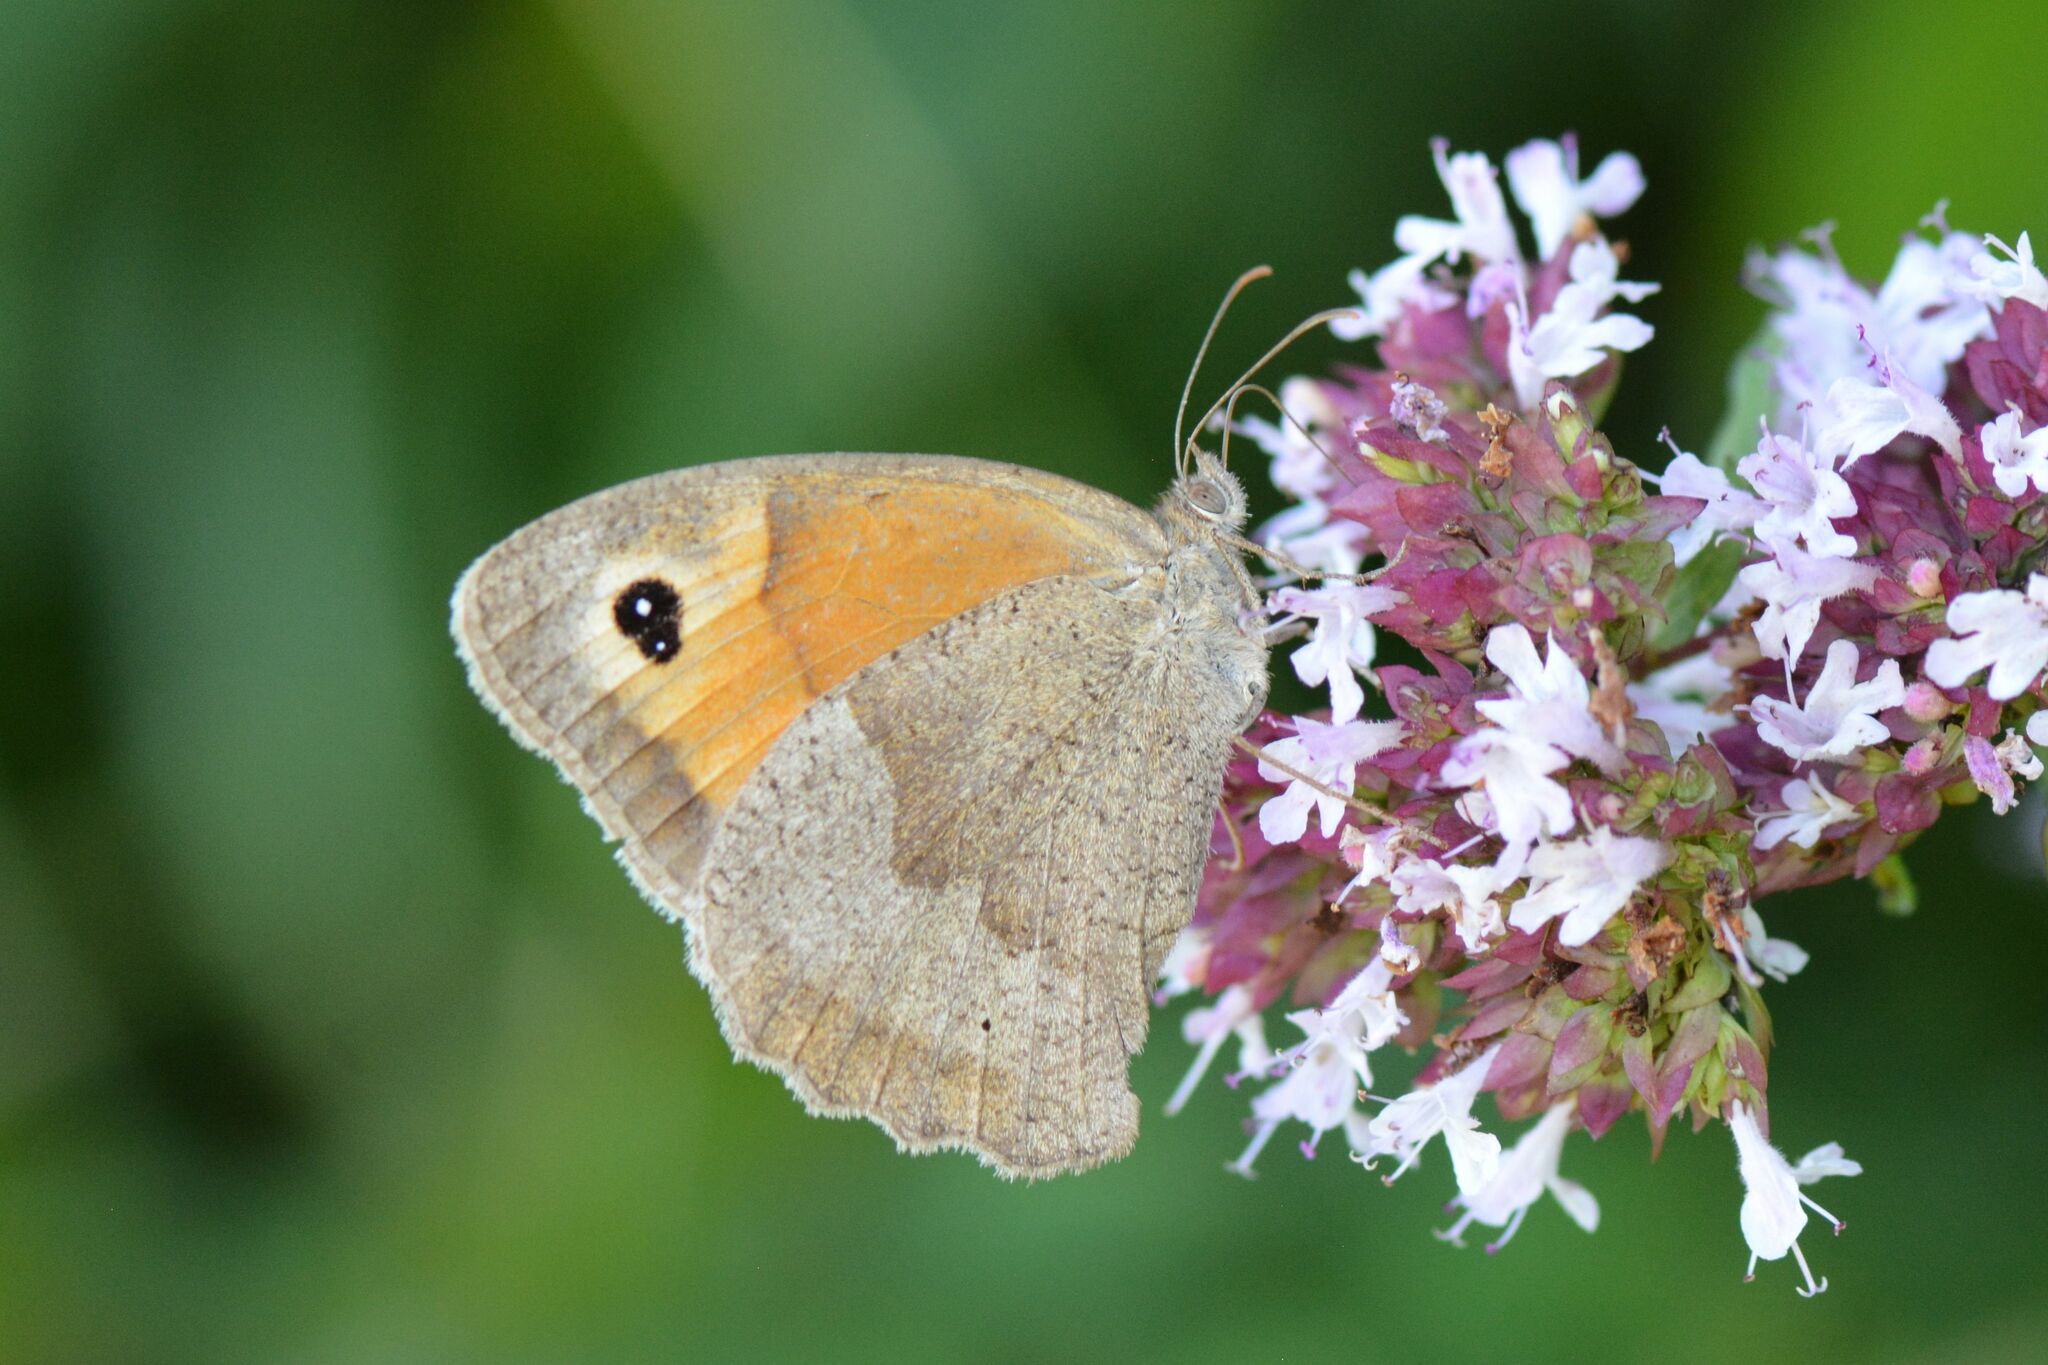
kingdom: Animalia
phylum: Arthropoda
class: Insecta
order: Lepidoptera
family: Nymphalidae
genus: Maniola
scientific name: Maniola jurtina
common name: Meadow brown
